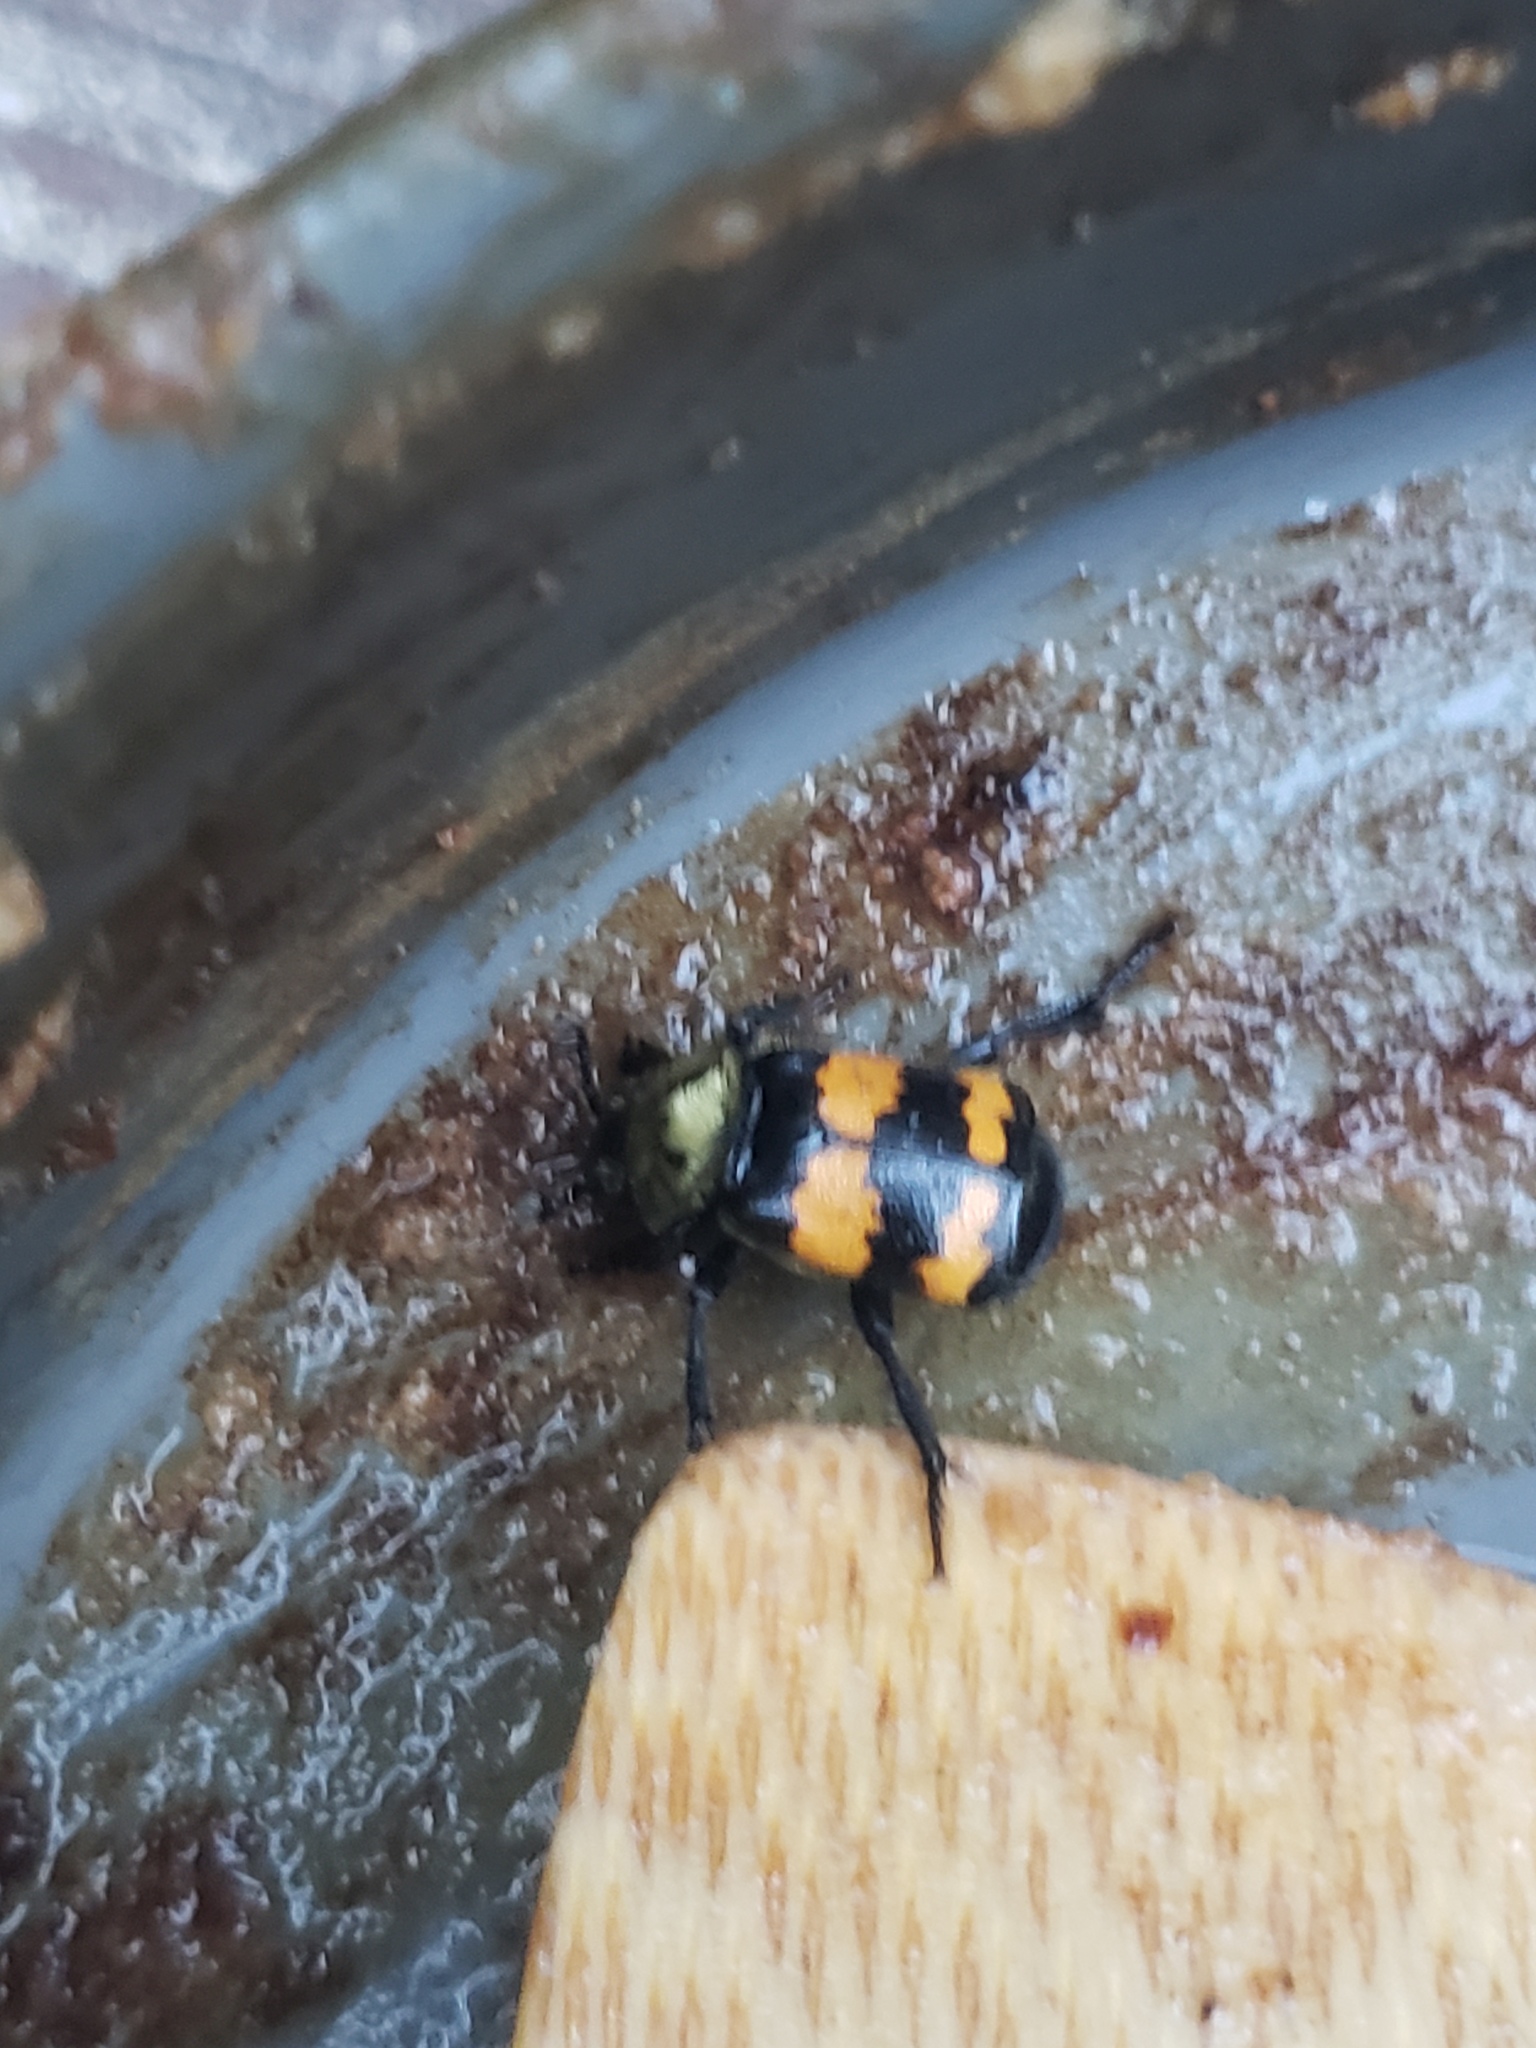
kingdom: Animalia
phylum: Arthropoda
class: Insecta
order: Coleoptera
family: Staphylinidae
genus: Nicrophorus
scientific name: Nicrophorus tomentosus
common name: Tomentose burying beetle
